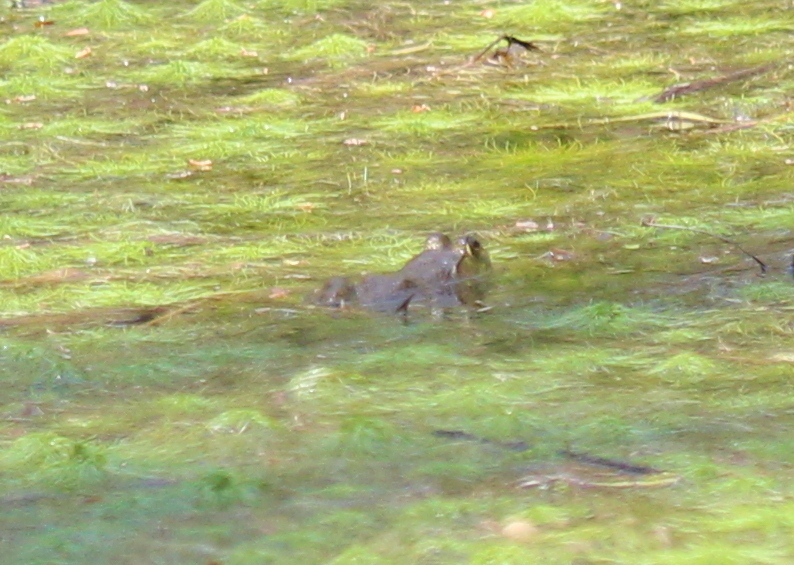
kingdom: Animalia
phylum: Chordata
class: Amphibia
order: Anura
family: Ranidae
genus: Lithobates
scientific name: Lithobates catesbeianus
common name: American bullfrog
